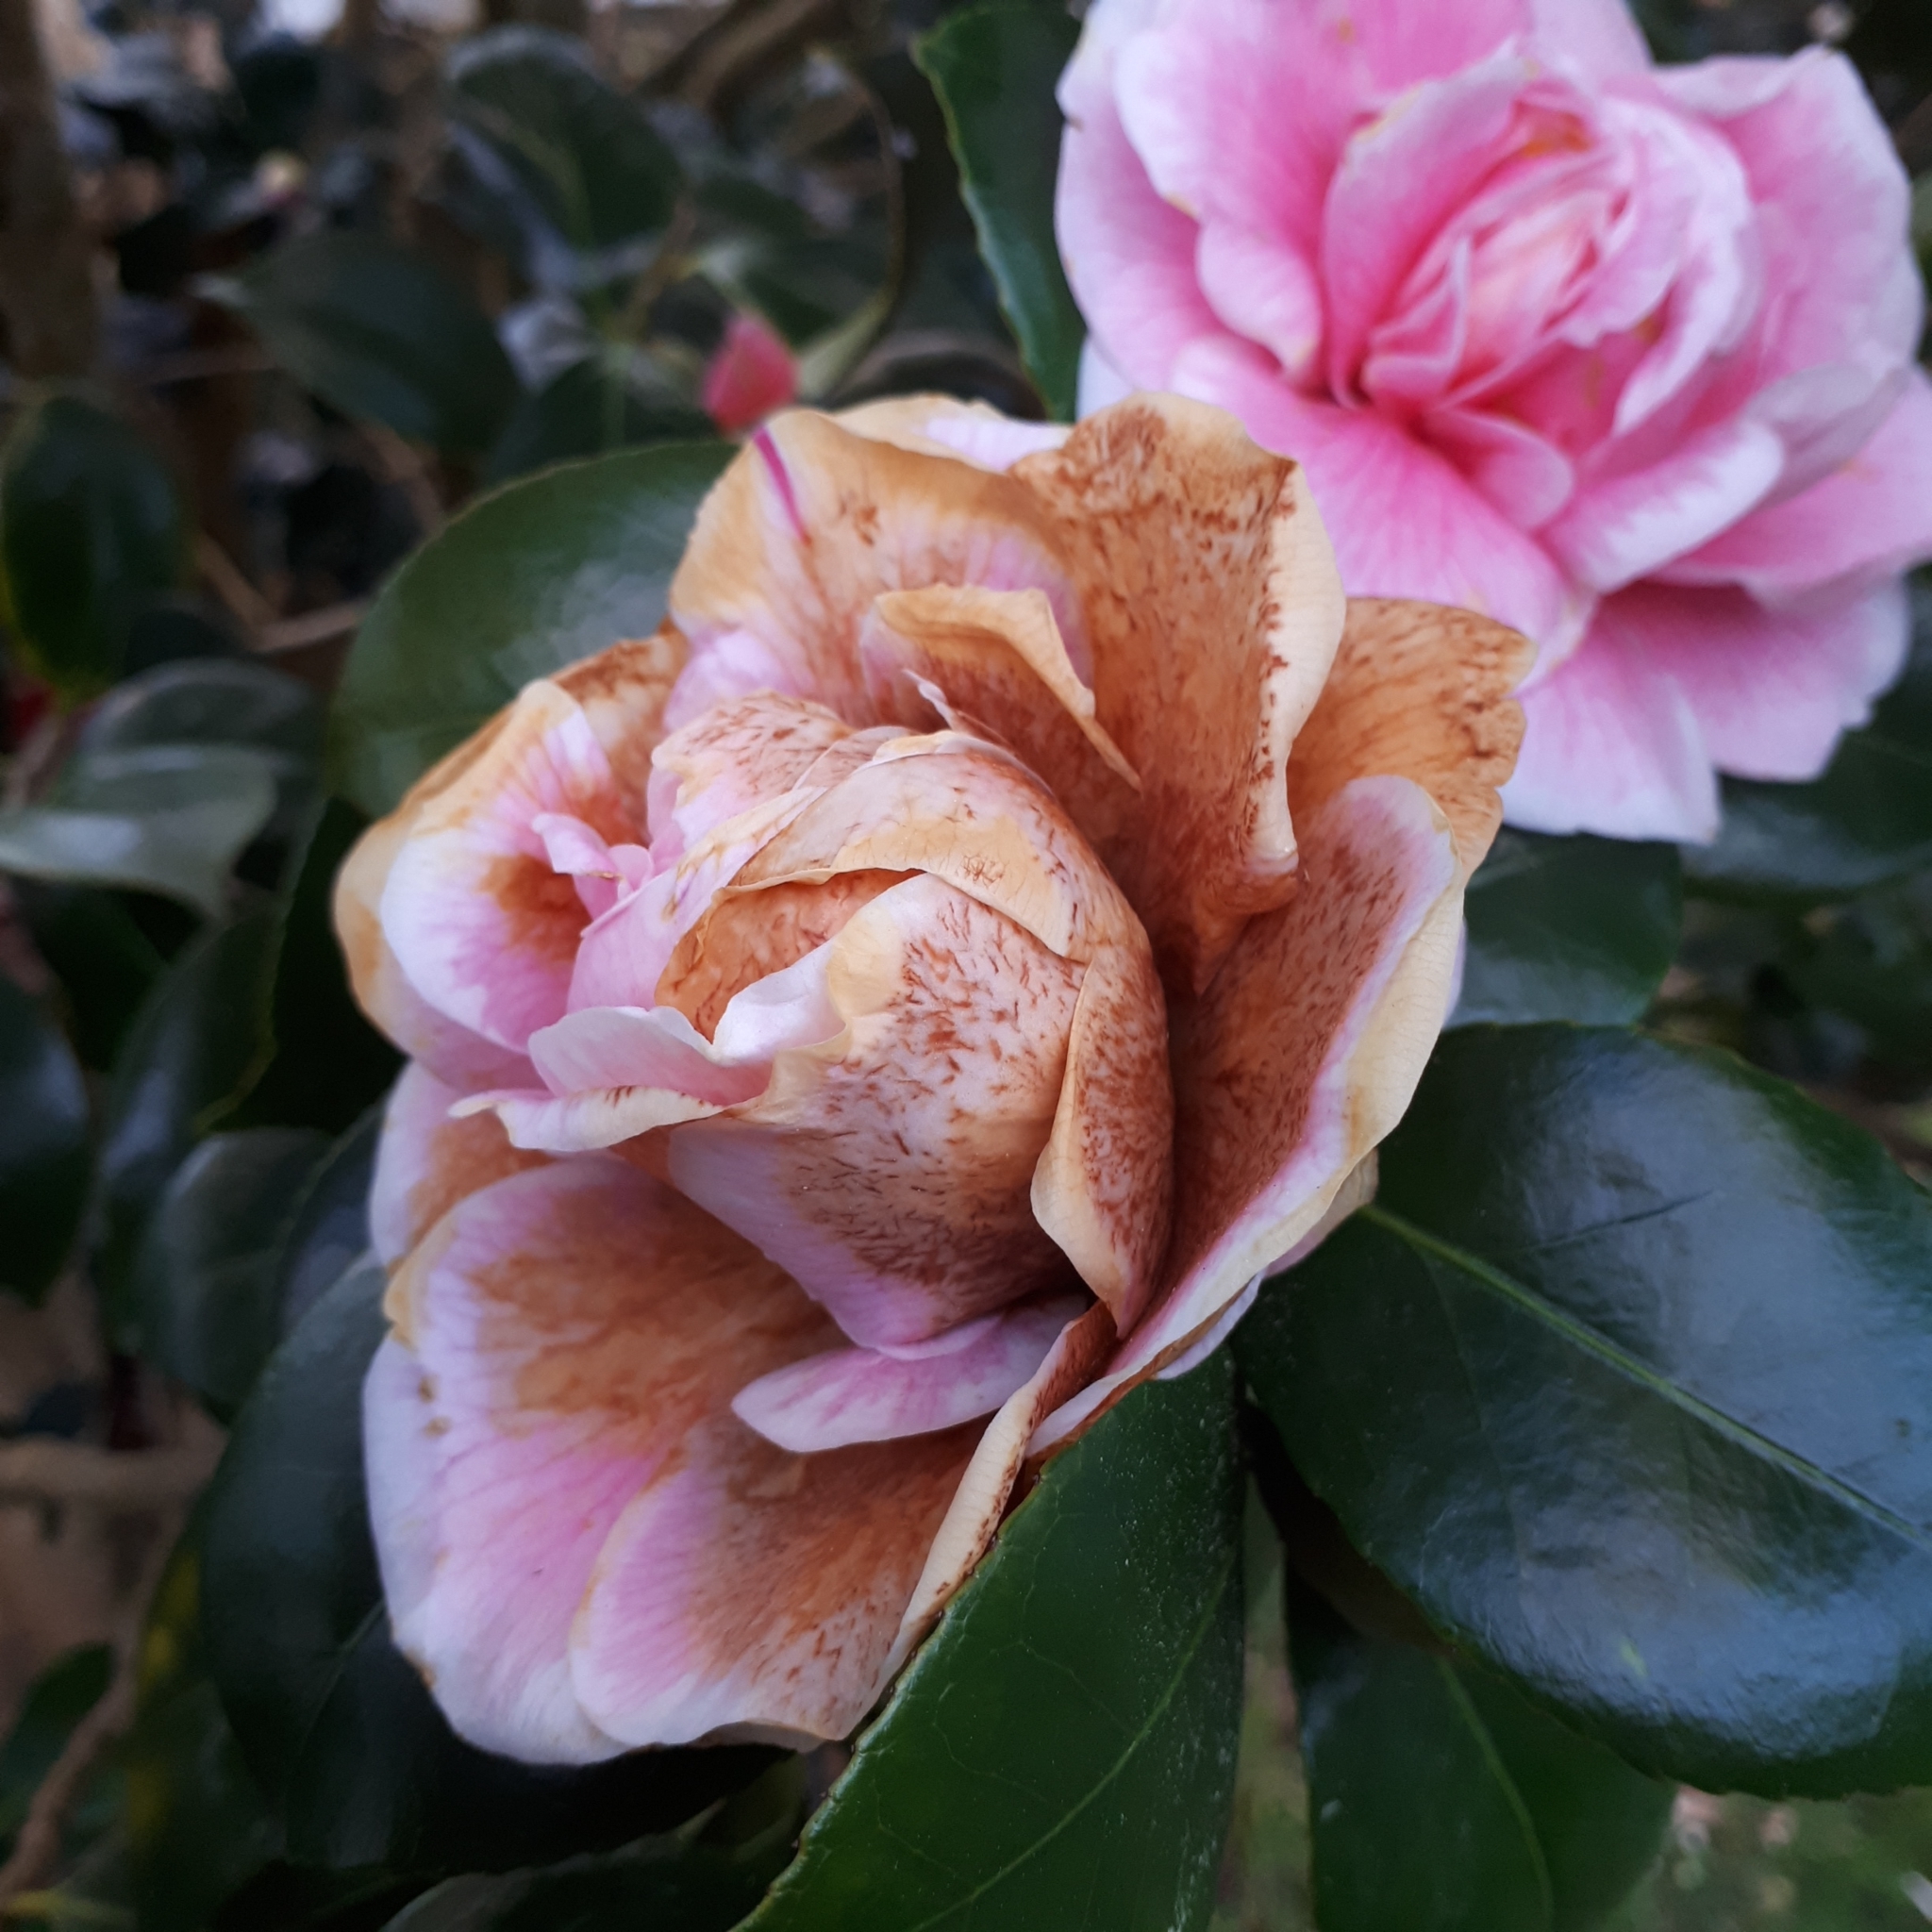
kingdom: Fungi
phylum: Ascomycota
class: Leotiomycetes
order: Helotiales
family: Sclerotiniaceae
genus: Ciborinia
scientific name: Ciborinia camelliae
